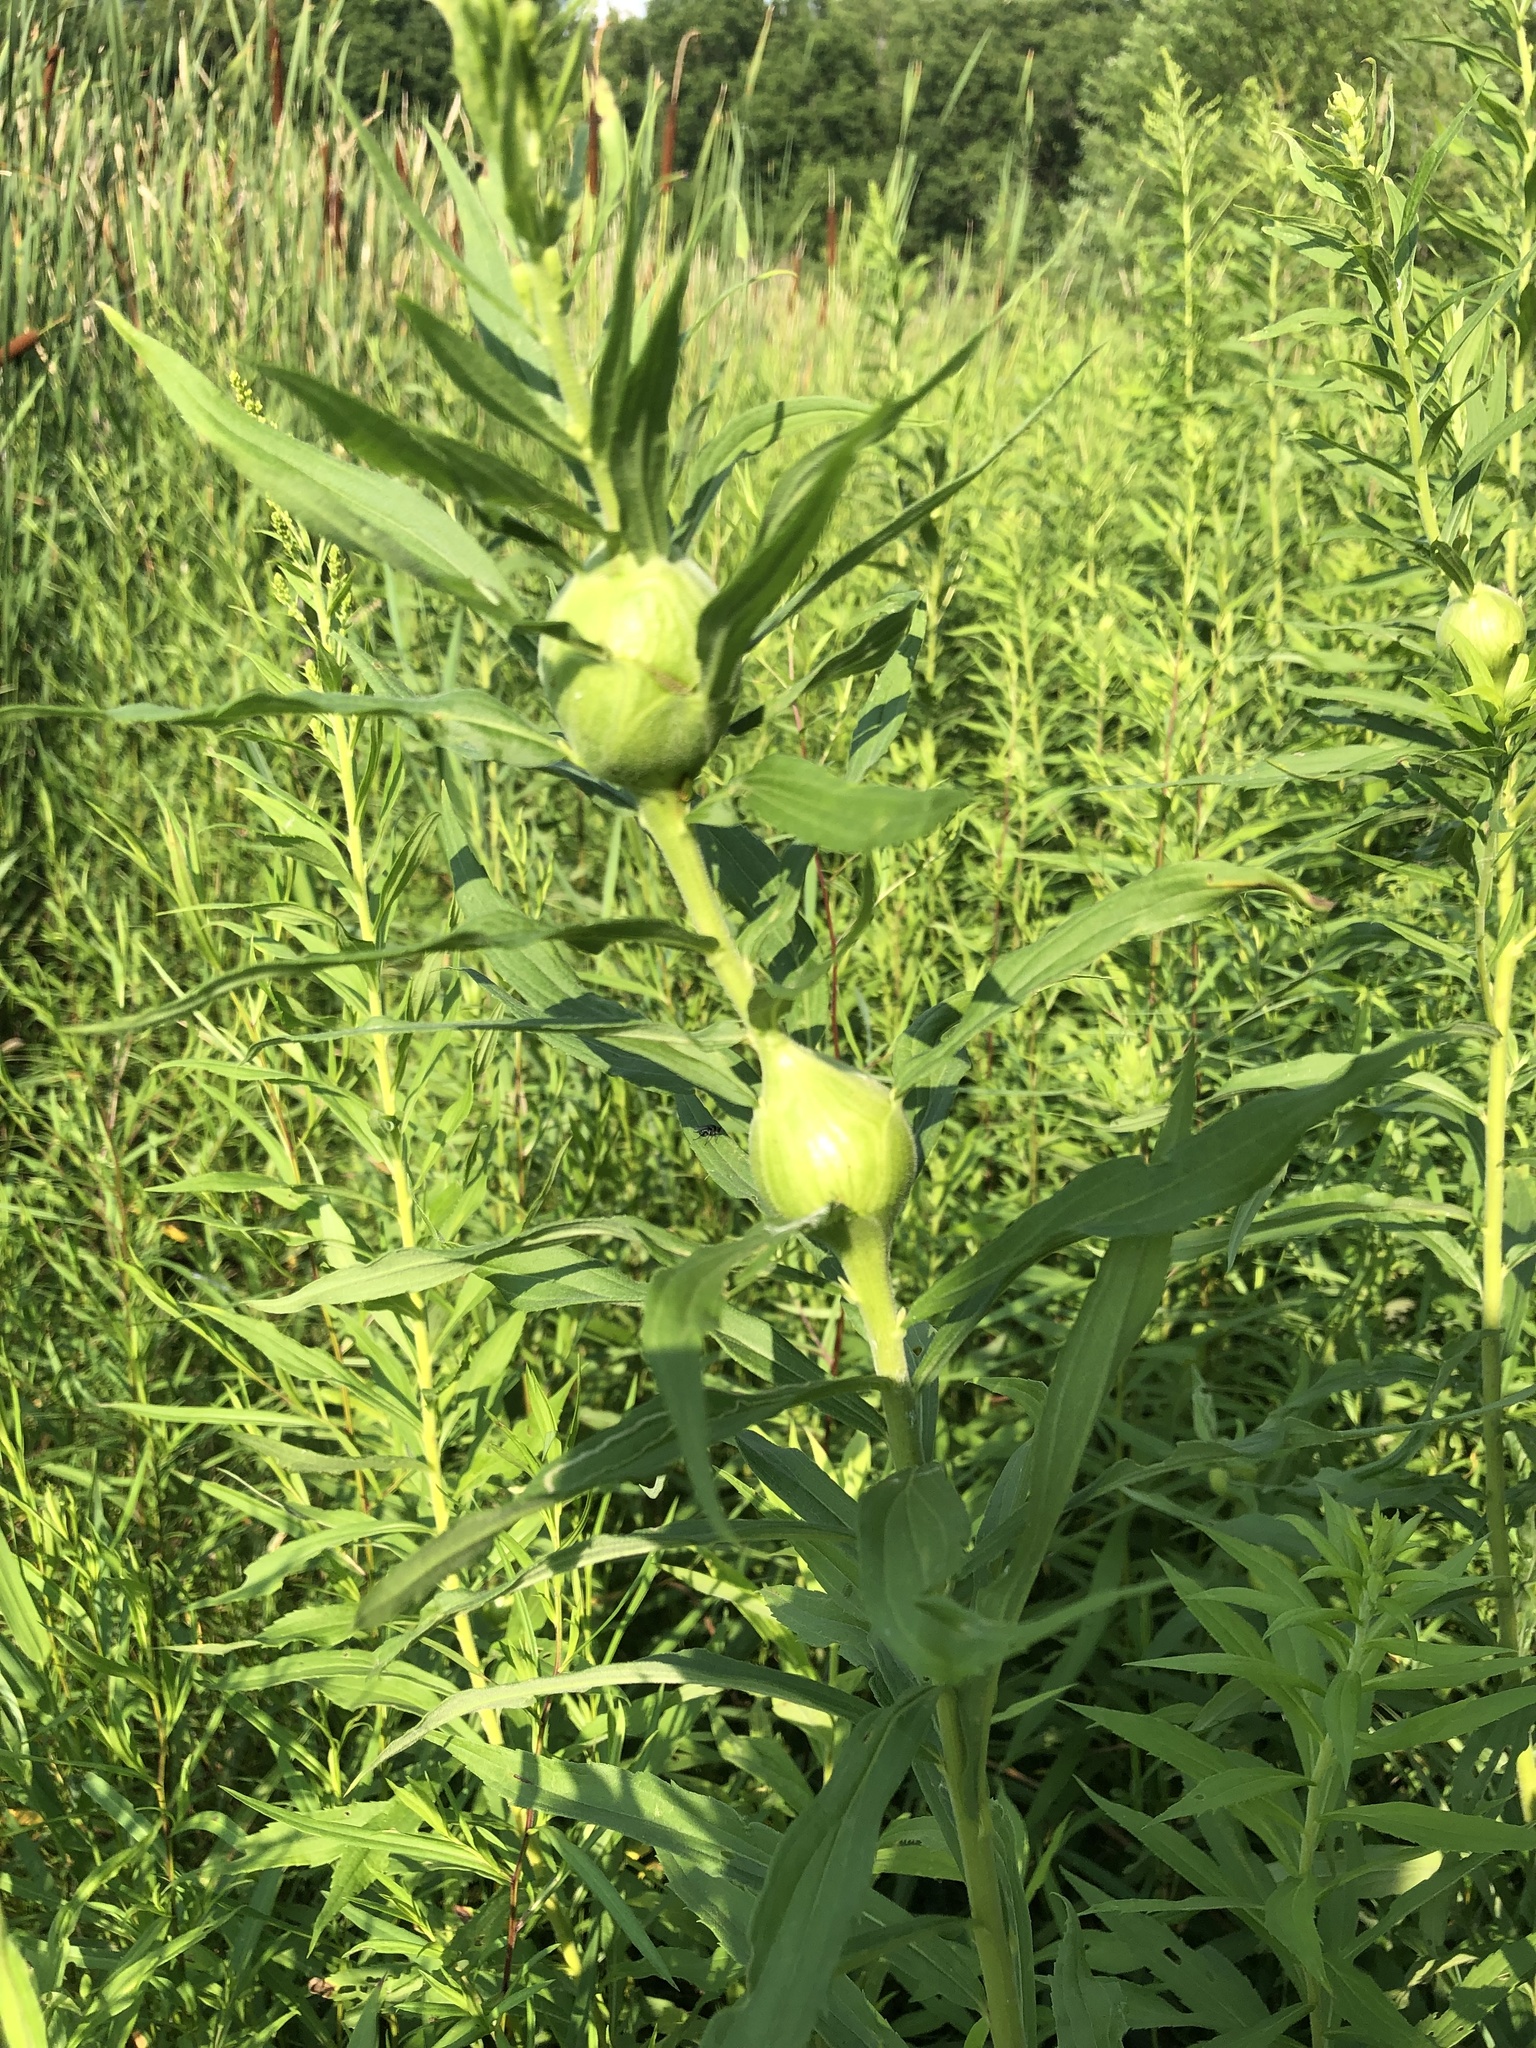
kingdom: Animalia
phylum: Arthropoda
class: Insecta
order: Diptera
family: Tephritidae
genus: Eurosta
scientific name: Eurosta solidaginis
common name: Goldenrod gall fly
